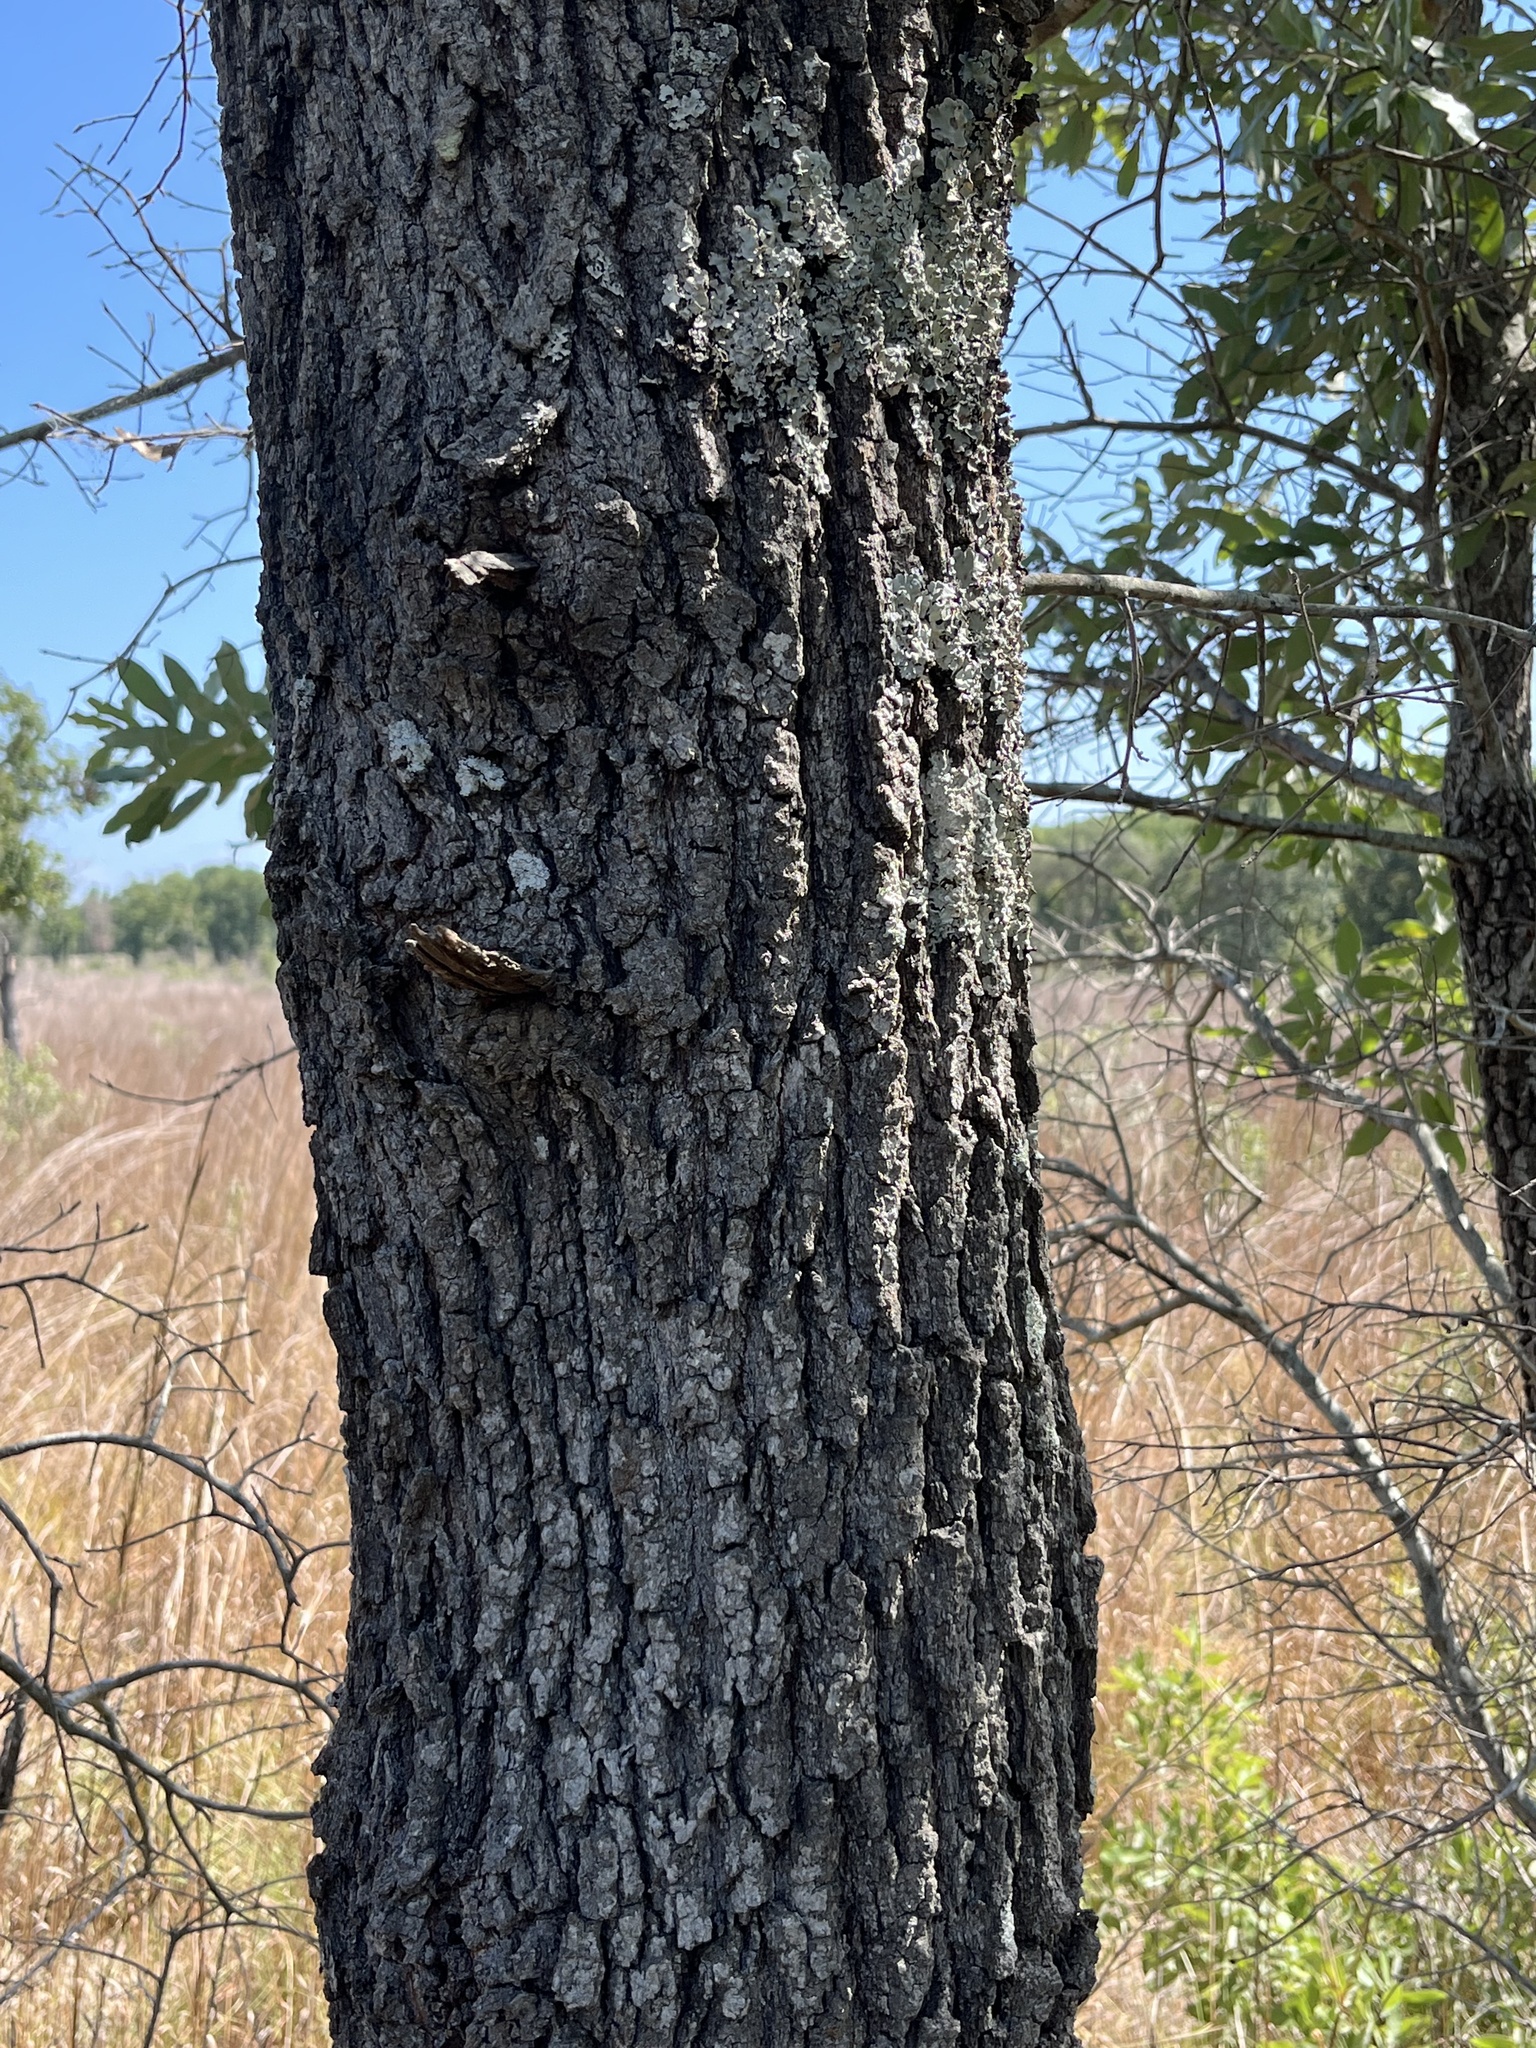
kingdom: Plantae
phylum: Tracheophyta
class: Magnoliopsida
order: Fagales
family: Fagaceae
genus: Quercus
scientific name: Quercus incana
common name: Bluejack oak
